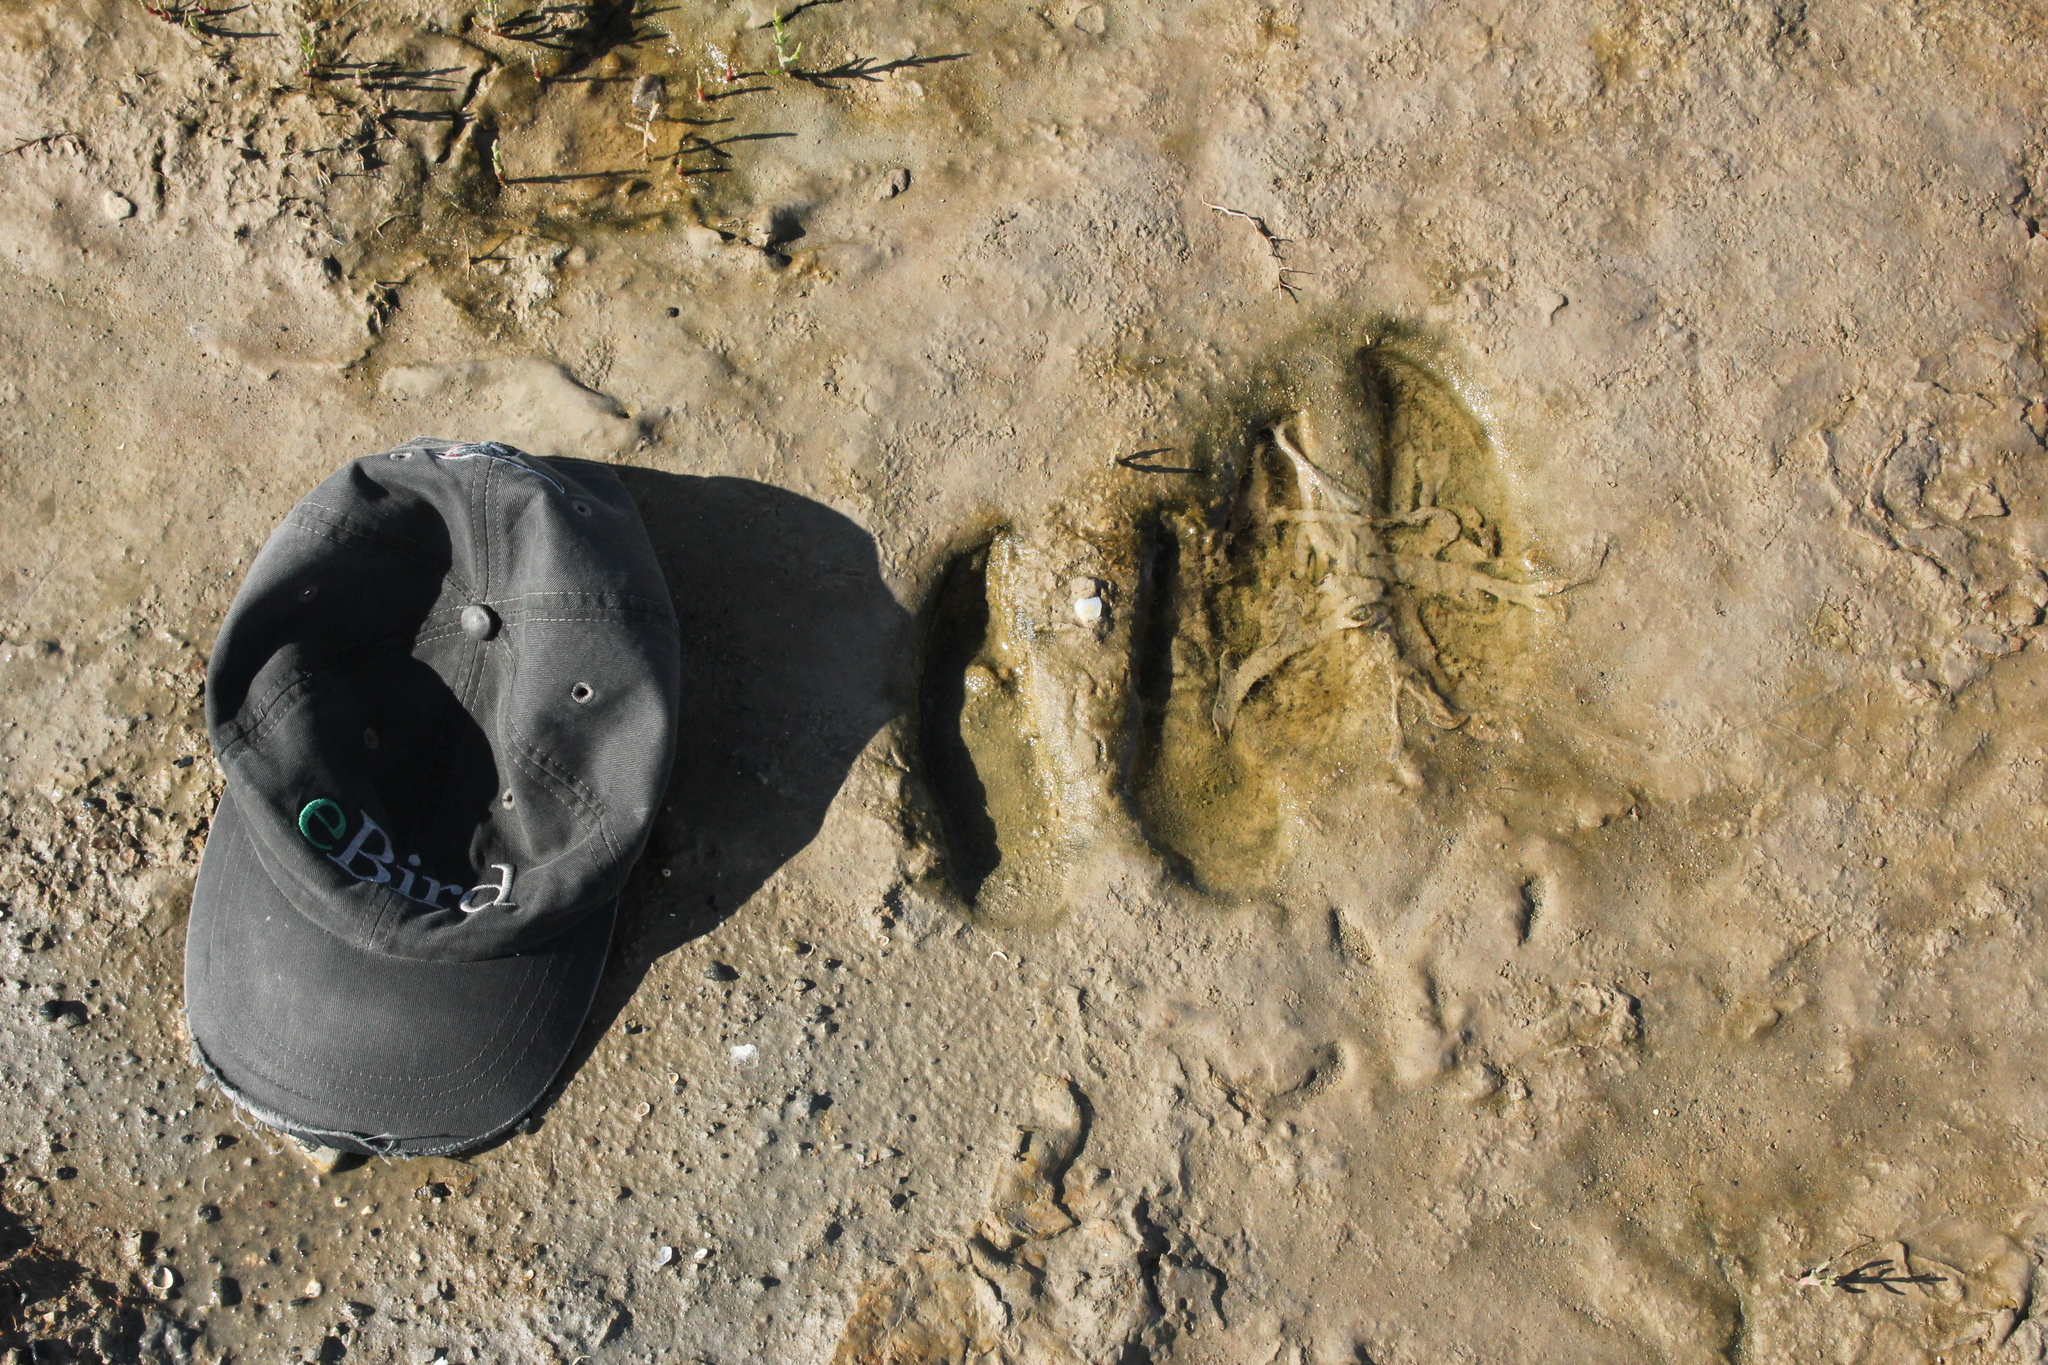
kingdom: Animalia
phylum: Chordata
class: Mammalia
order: Artiodactyla
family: Cervidae
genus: Alces
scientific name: Alces alces
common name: Moose
